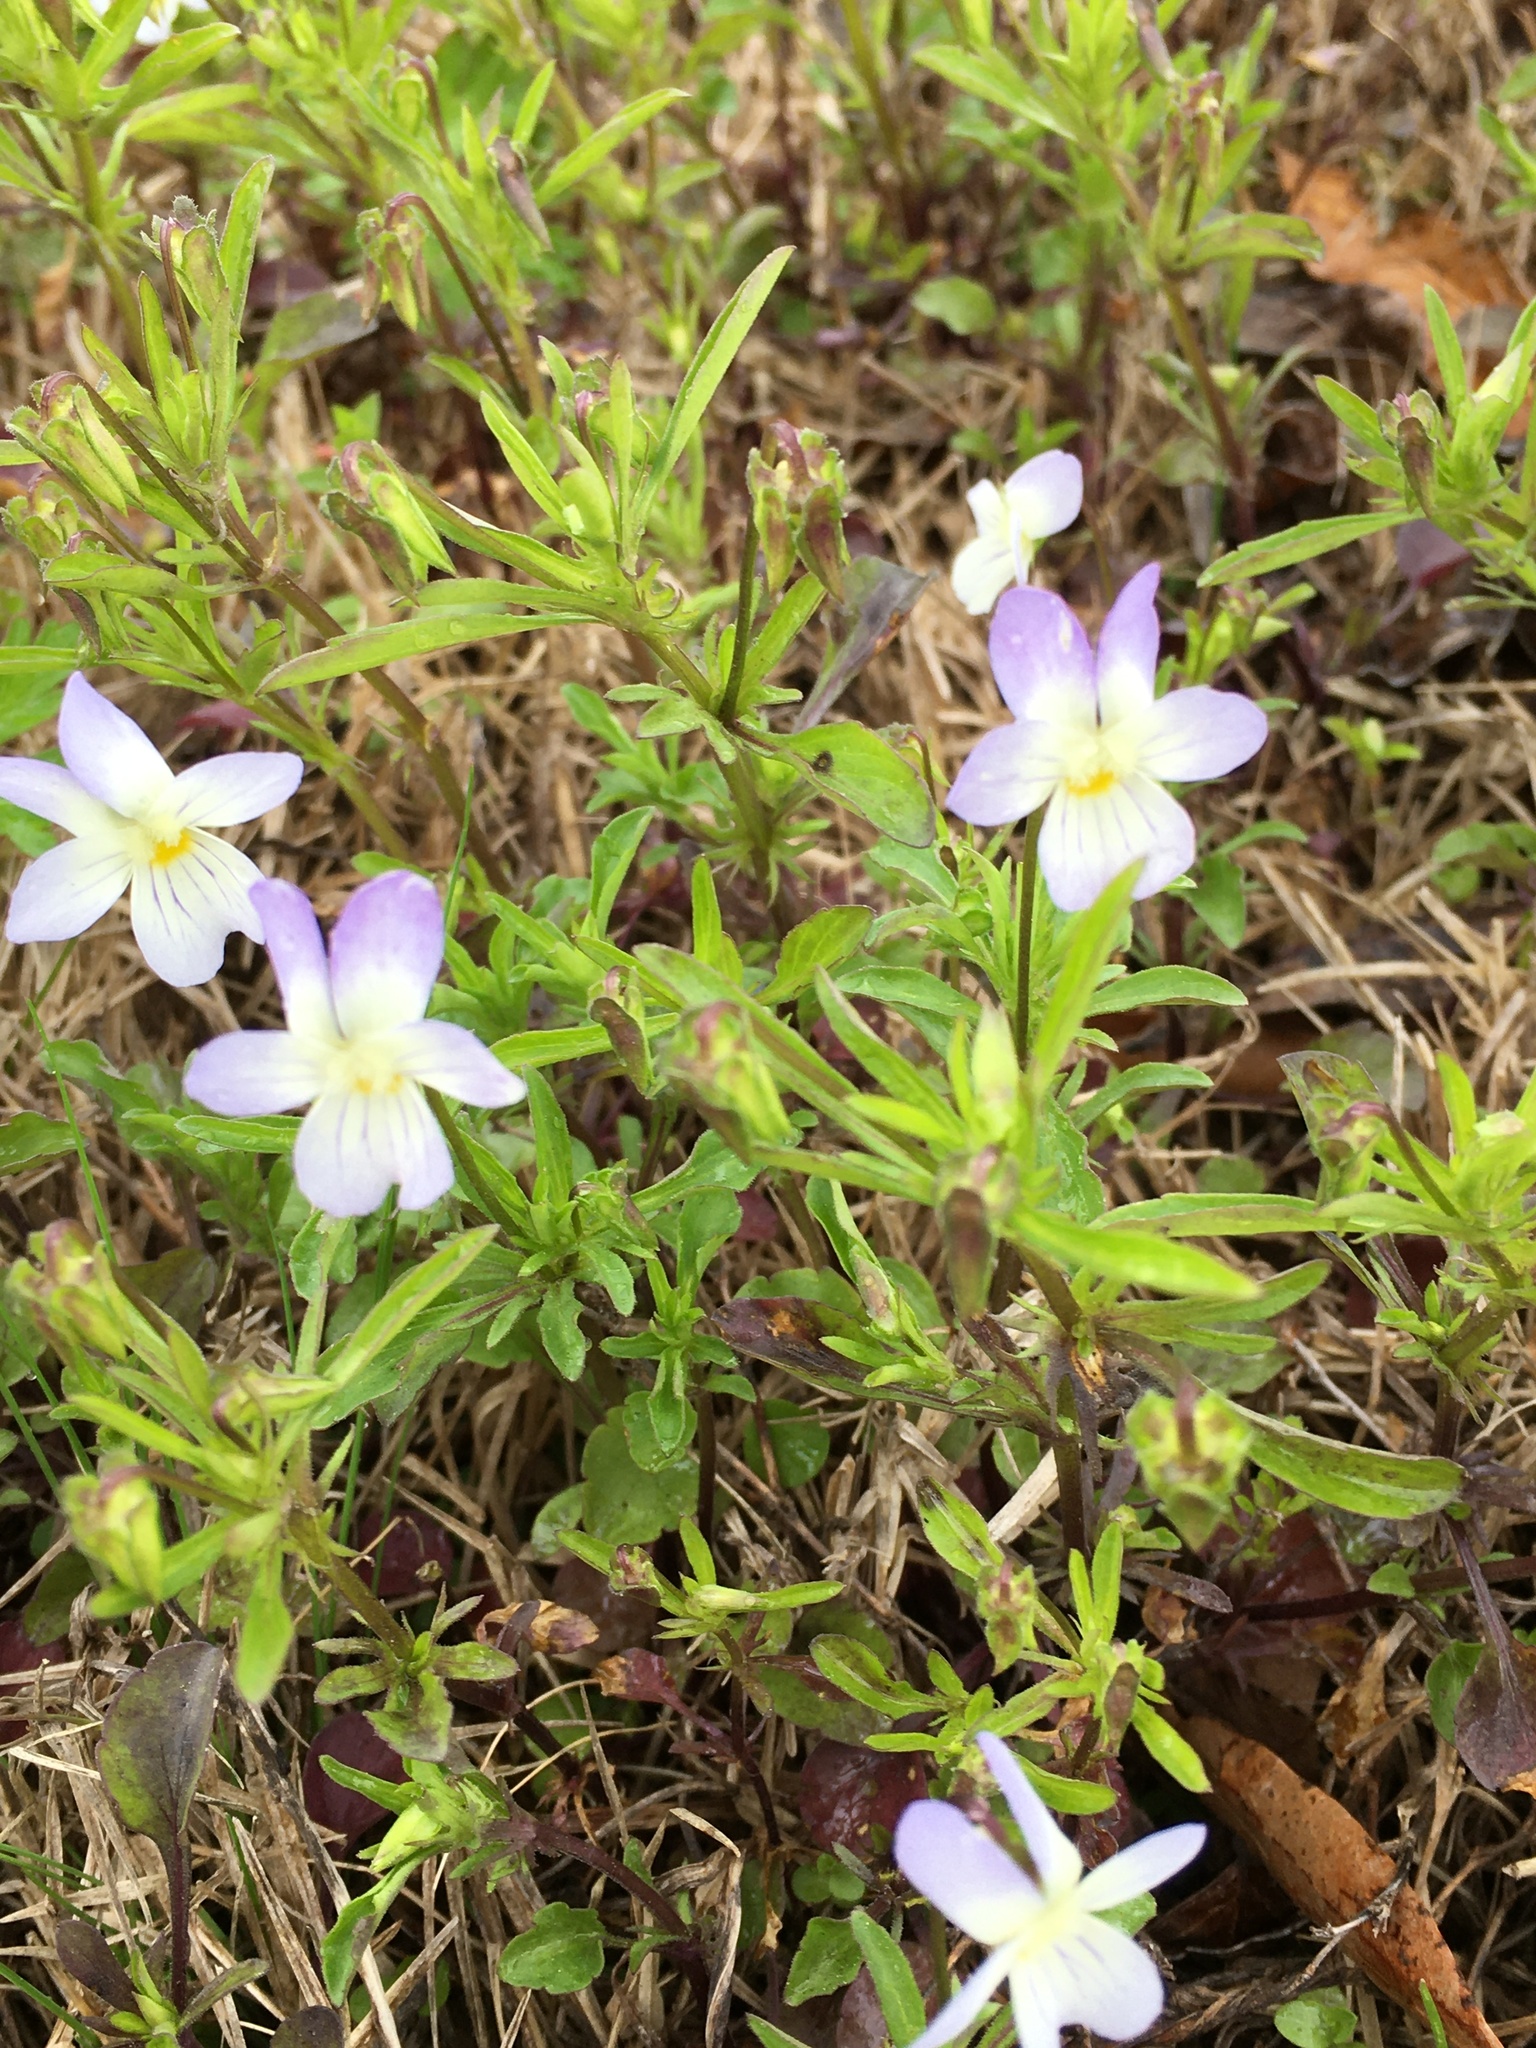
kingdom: Plantae
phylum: Tracheophyta
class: Magnoliopsida
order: Malpighiales
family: Violaceae
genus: Viola
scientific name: Viola rafinesquei
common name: American field pansy
